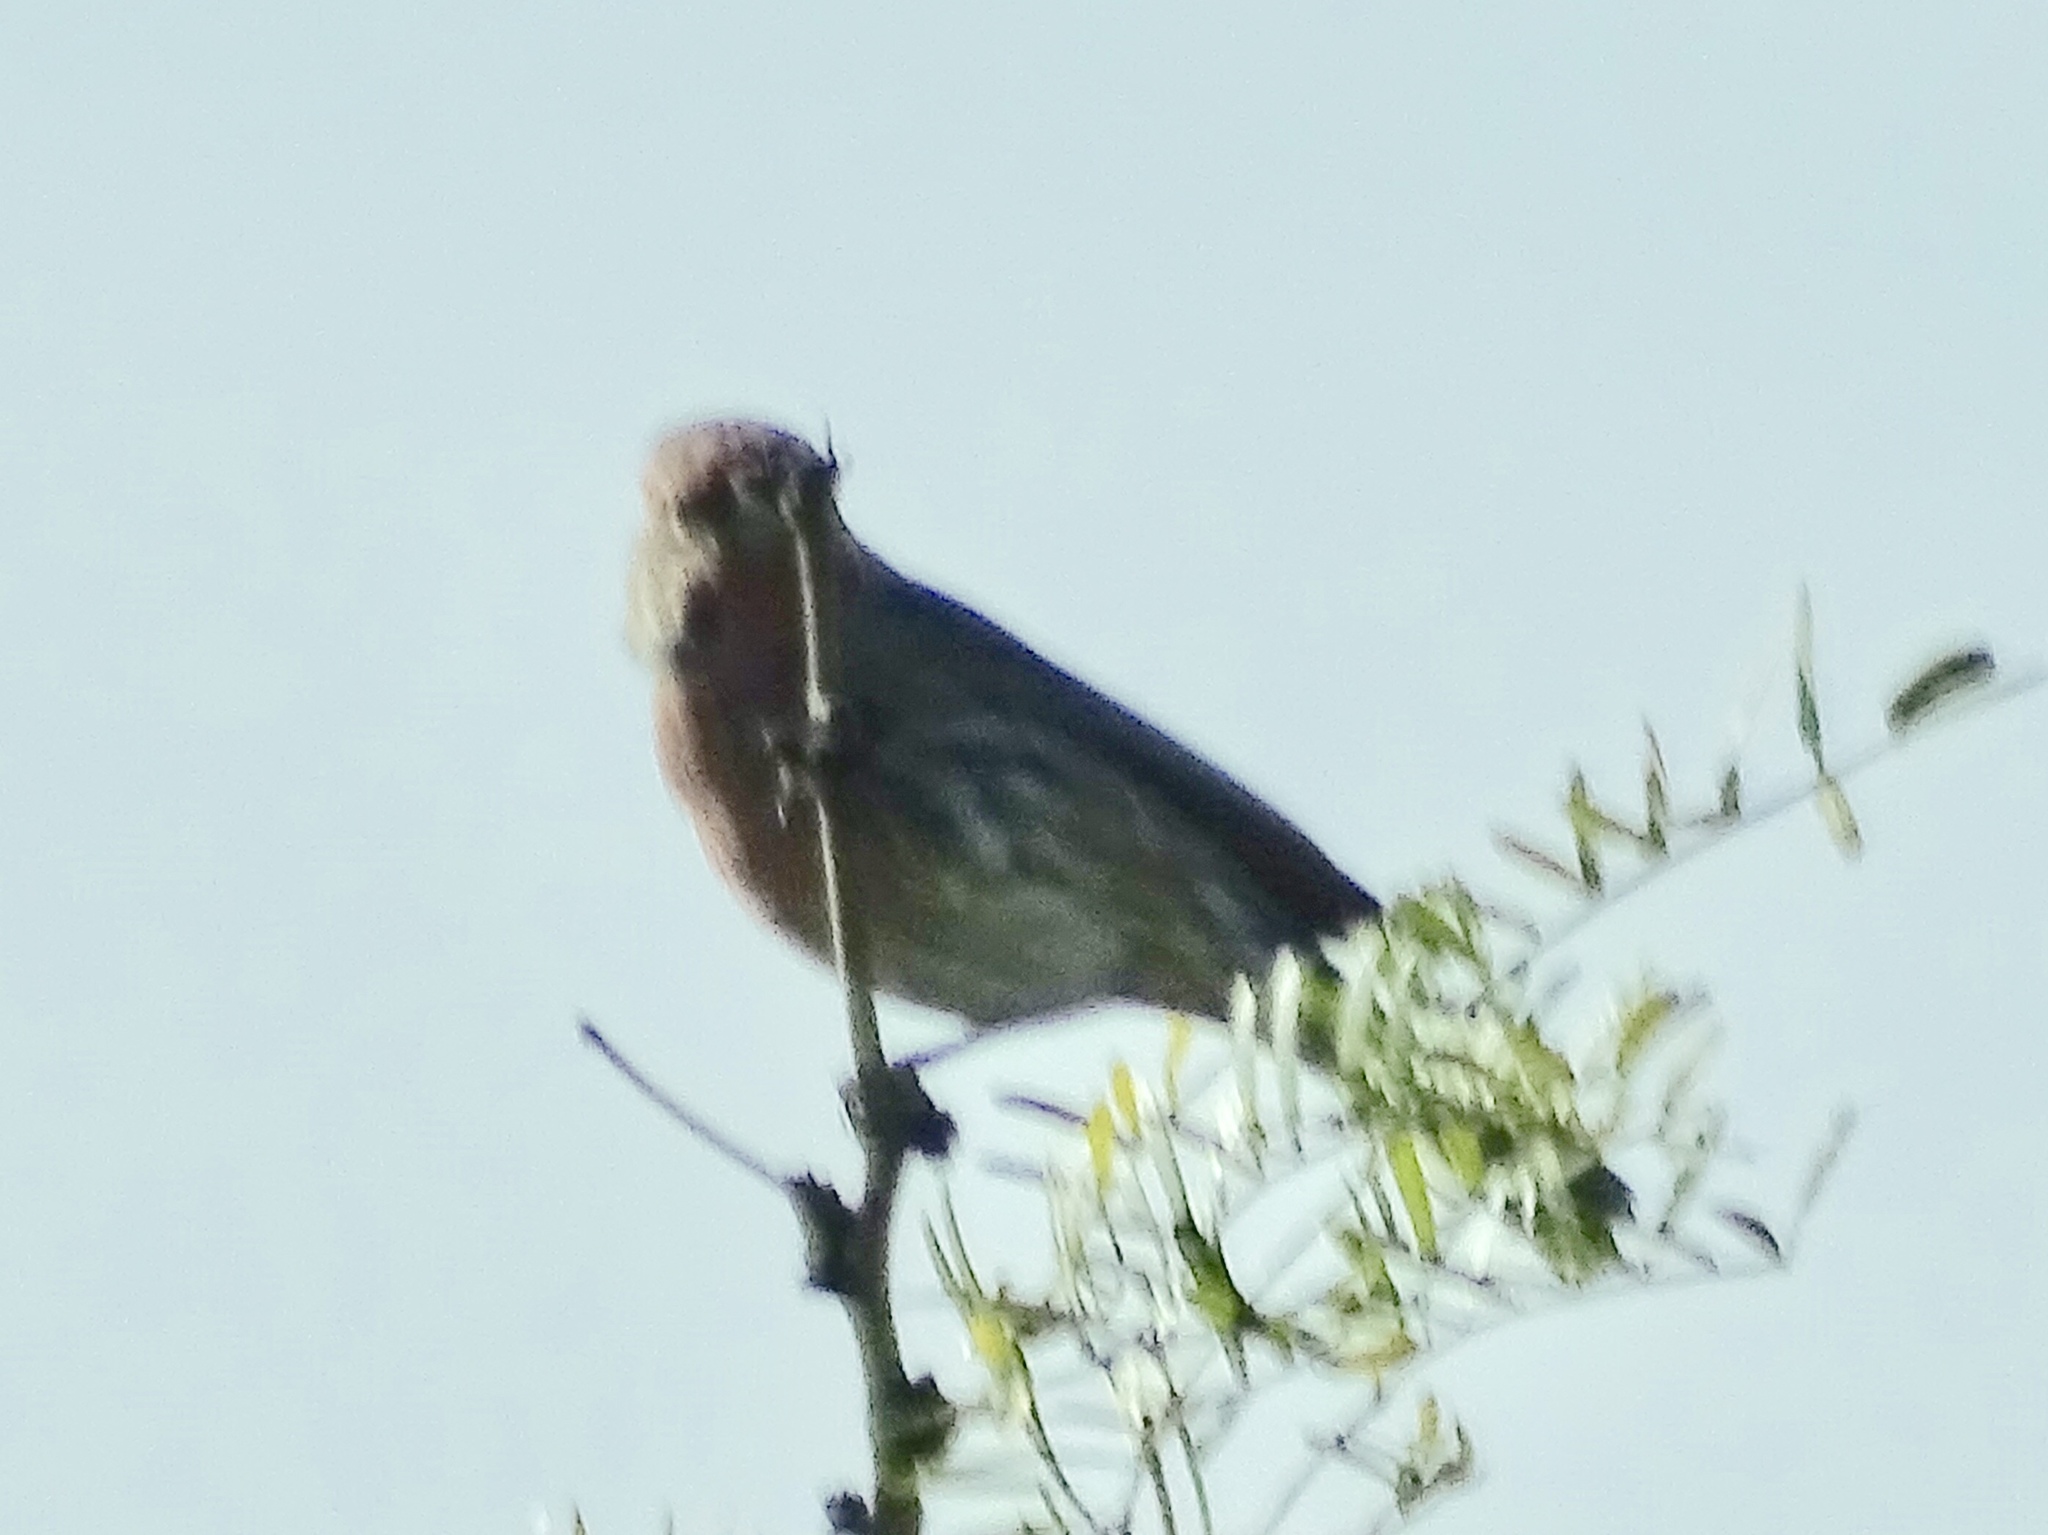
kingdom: Animalia
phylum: Chordata
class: Aves
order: Passeriformes
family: Fringillidae
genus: Haemorhous
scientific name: Haemorhous mexicanus
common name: House finch
